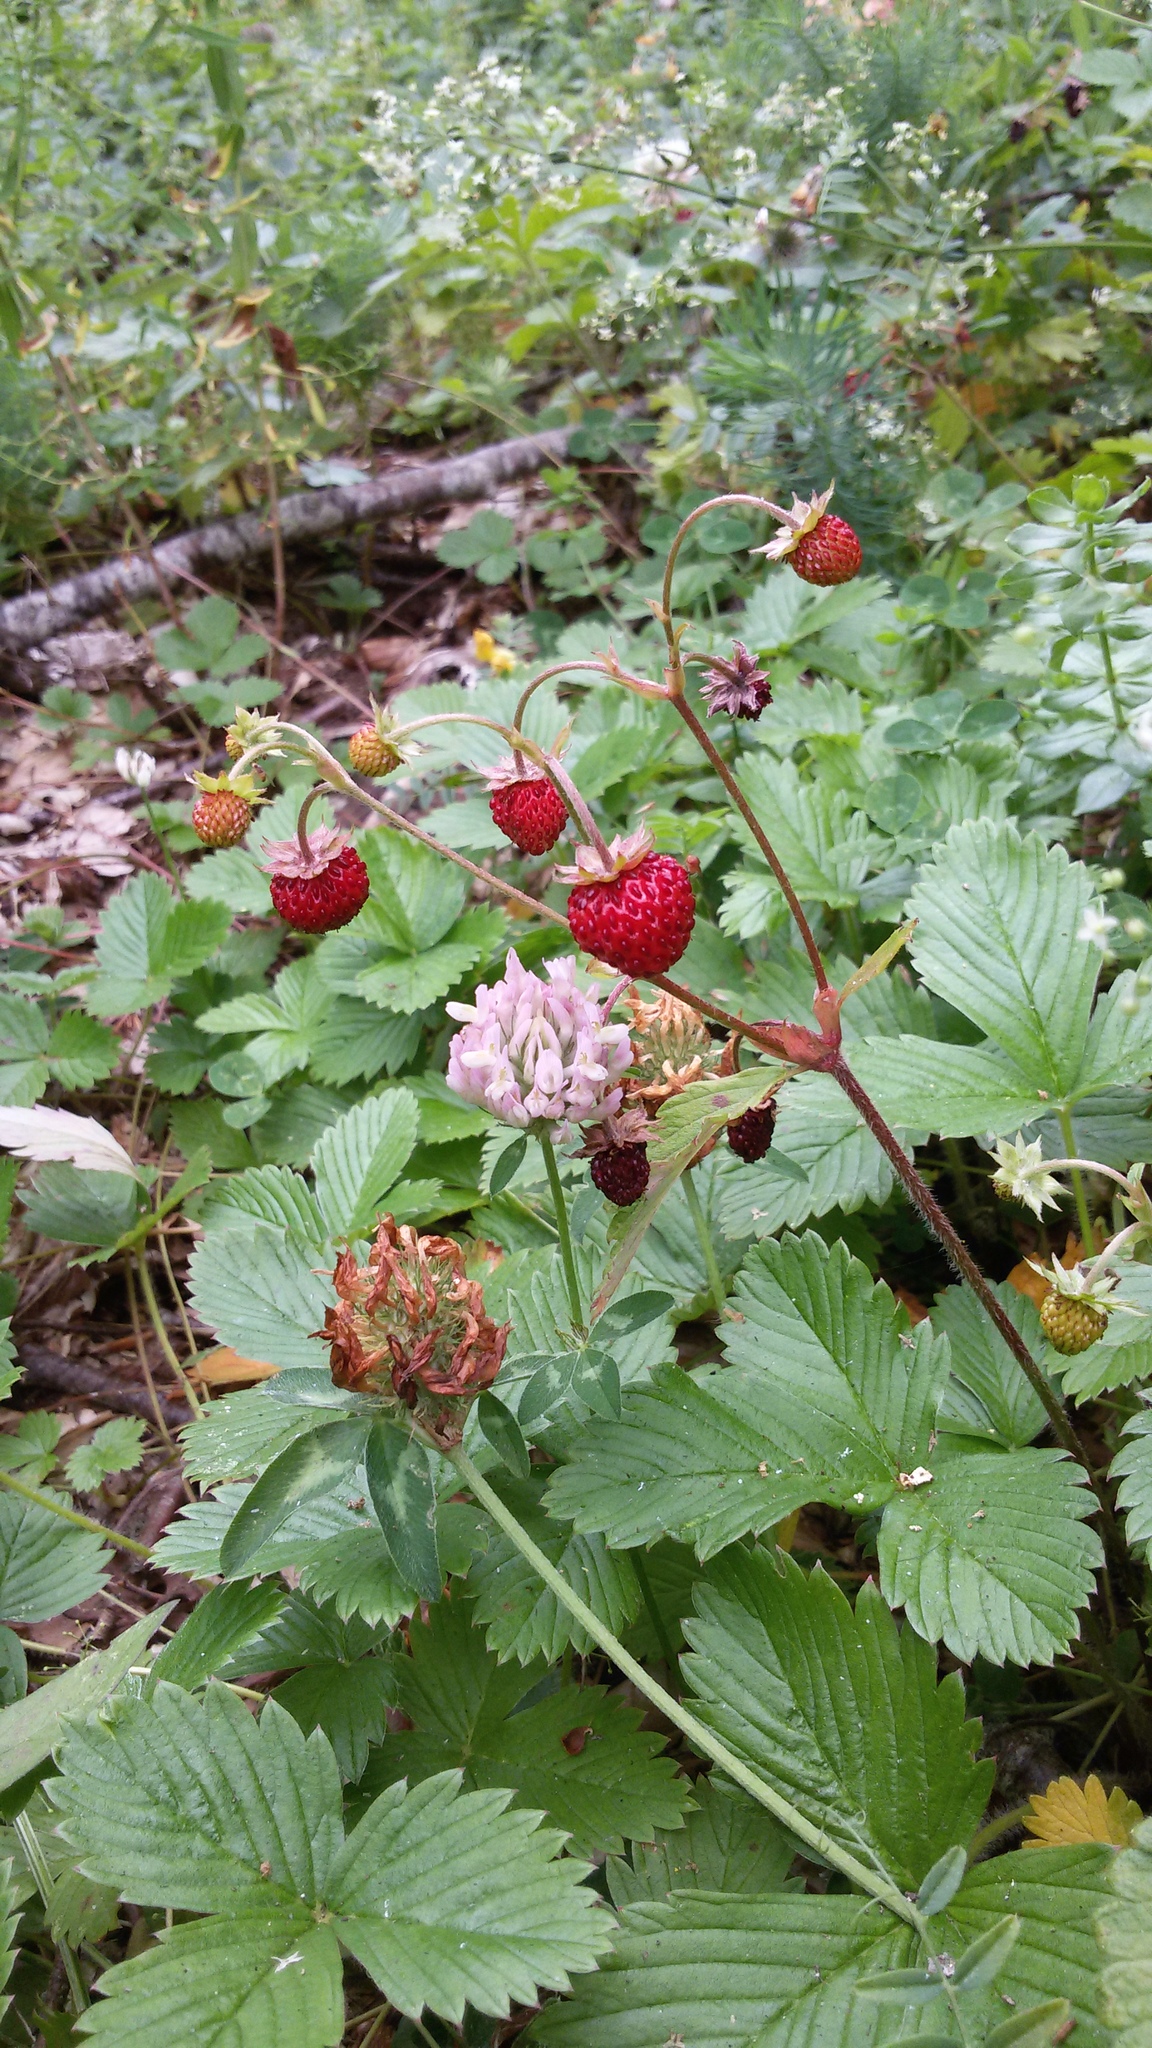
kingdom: Plantae
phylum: Tracheophyta
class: Magnoliopsida
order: Rosales
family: Rosaceae
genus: Fragaria
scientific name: Fragaria vesca
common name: Wild strawberry
